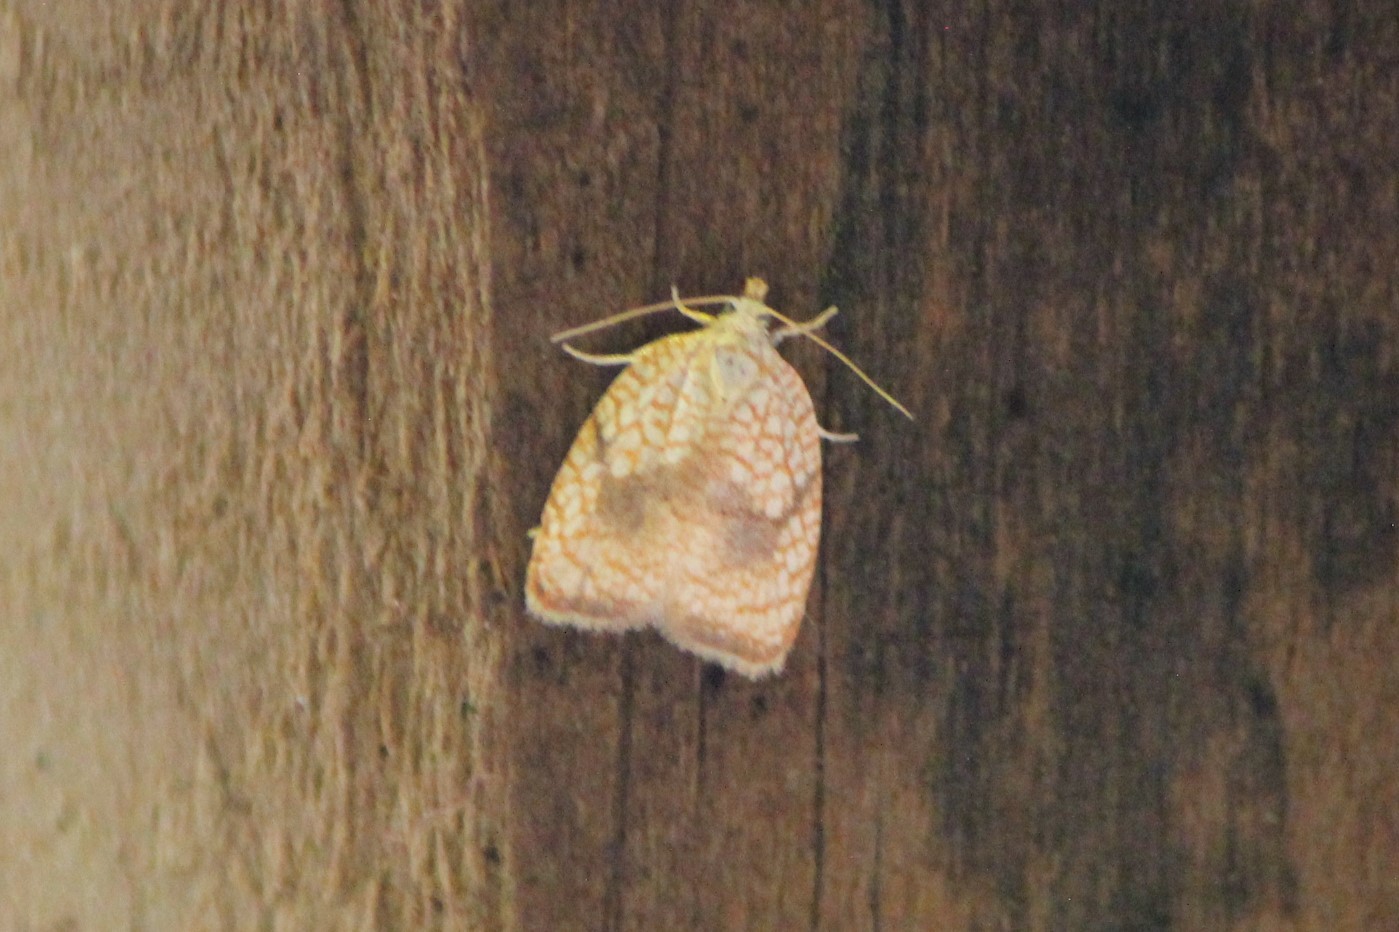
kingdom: Animalia
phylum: Arthropoda
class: Insecta
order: Lepidoptera
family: Tortricidae
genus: Acleris
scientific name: Acleris forsskaleana
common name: Maple button
